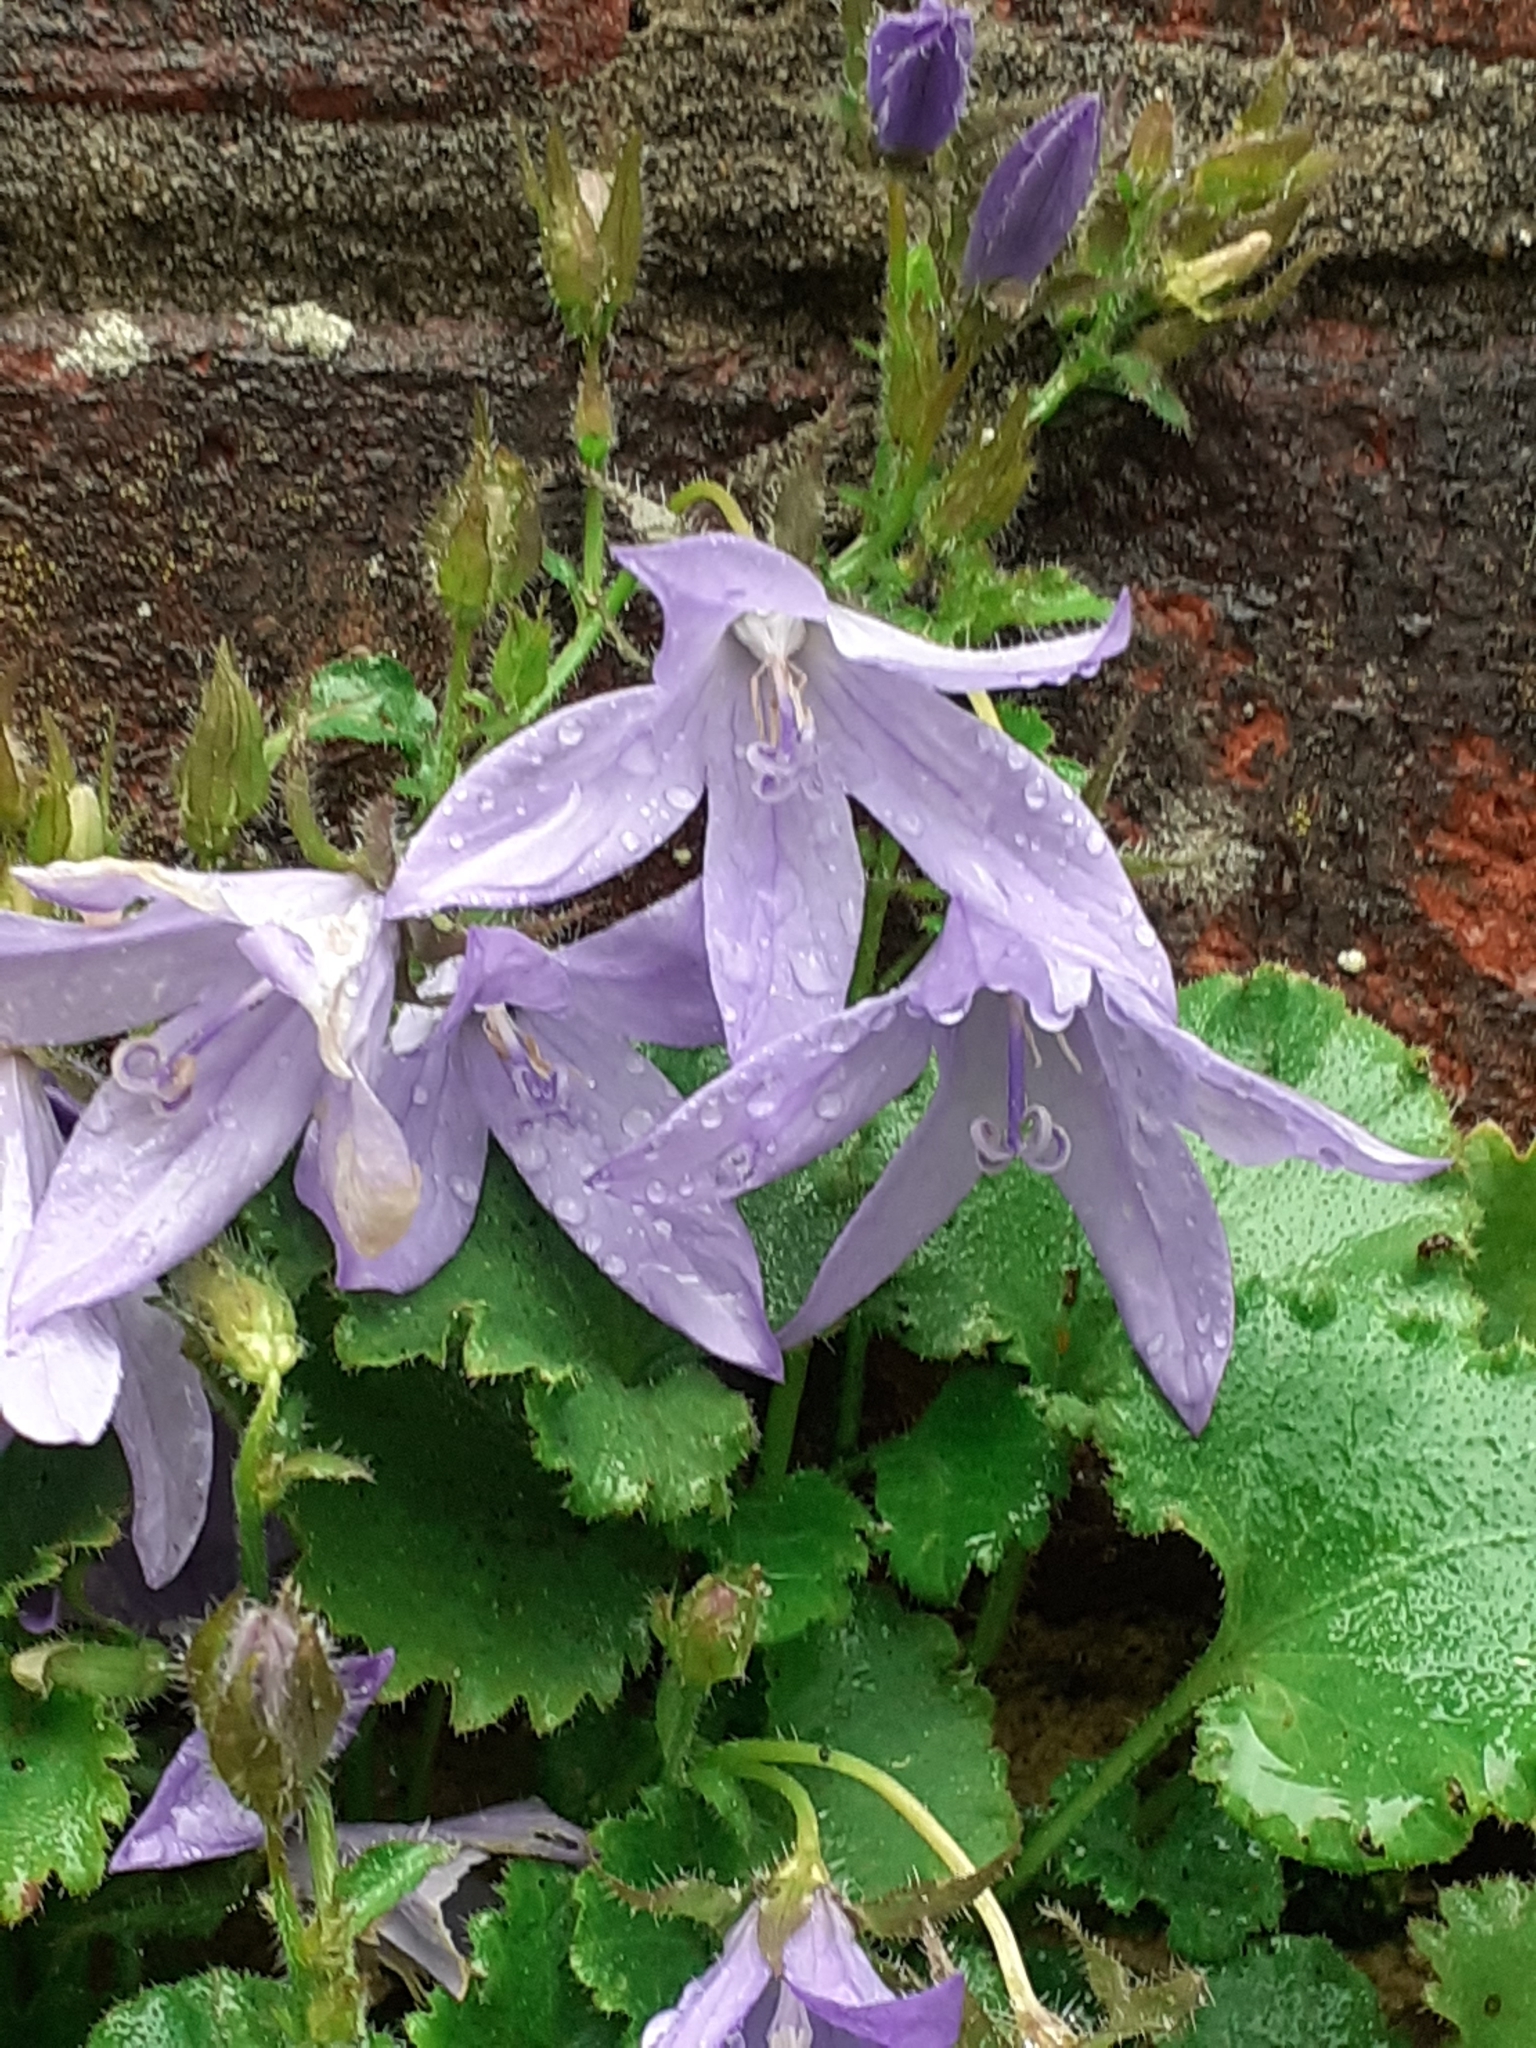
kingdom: Plantae
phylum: Tracheophyta
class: Magnoliopsida
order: Asterales
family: Campanulaceae
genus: Campanula
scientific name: Campanula poscharskyana
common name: Trailing bellflower
